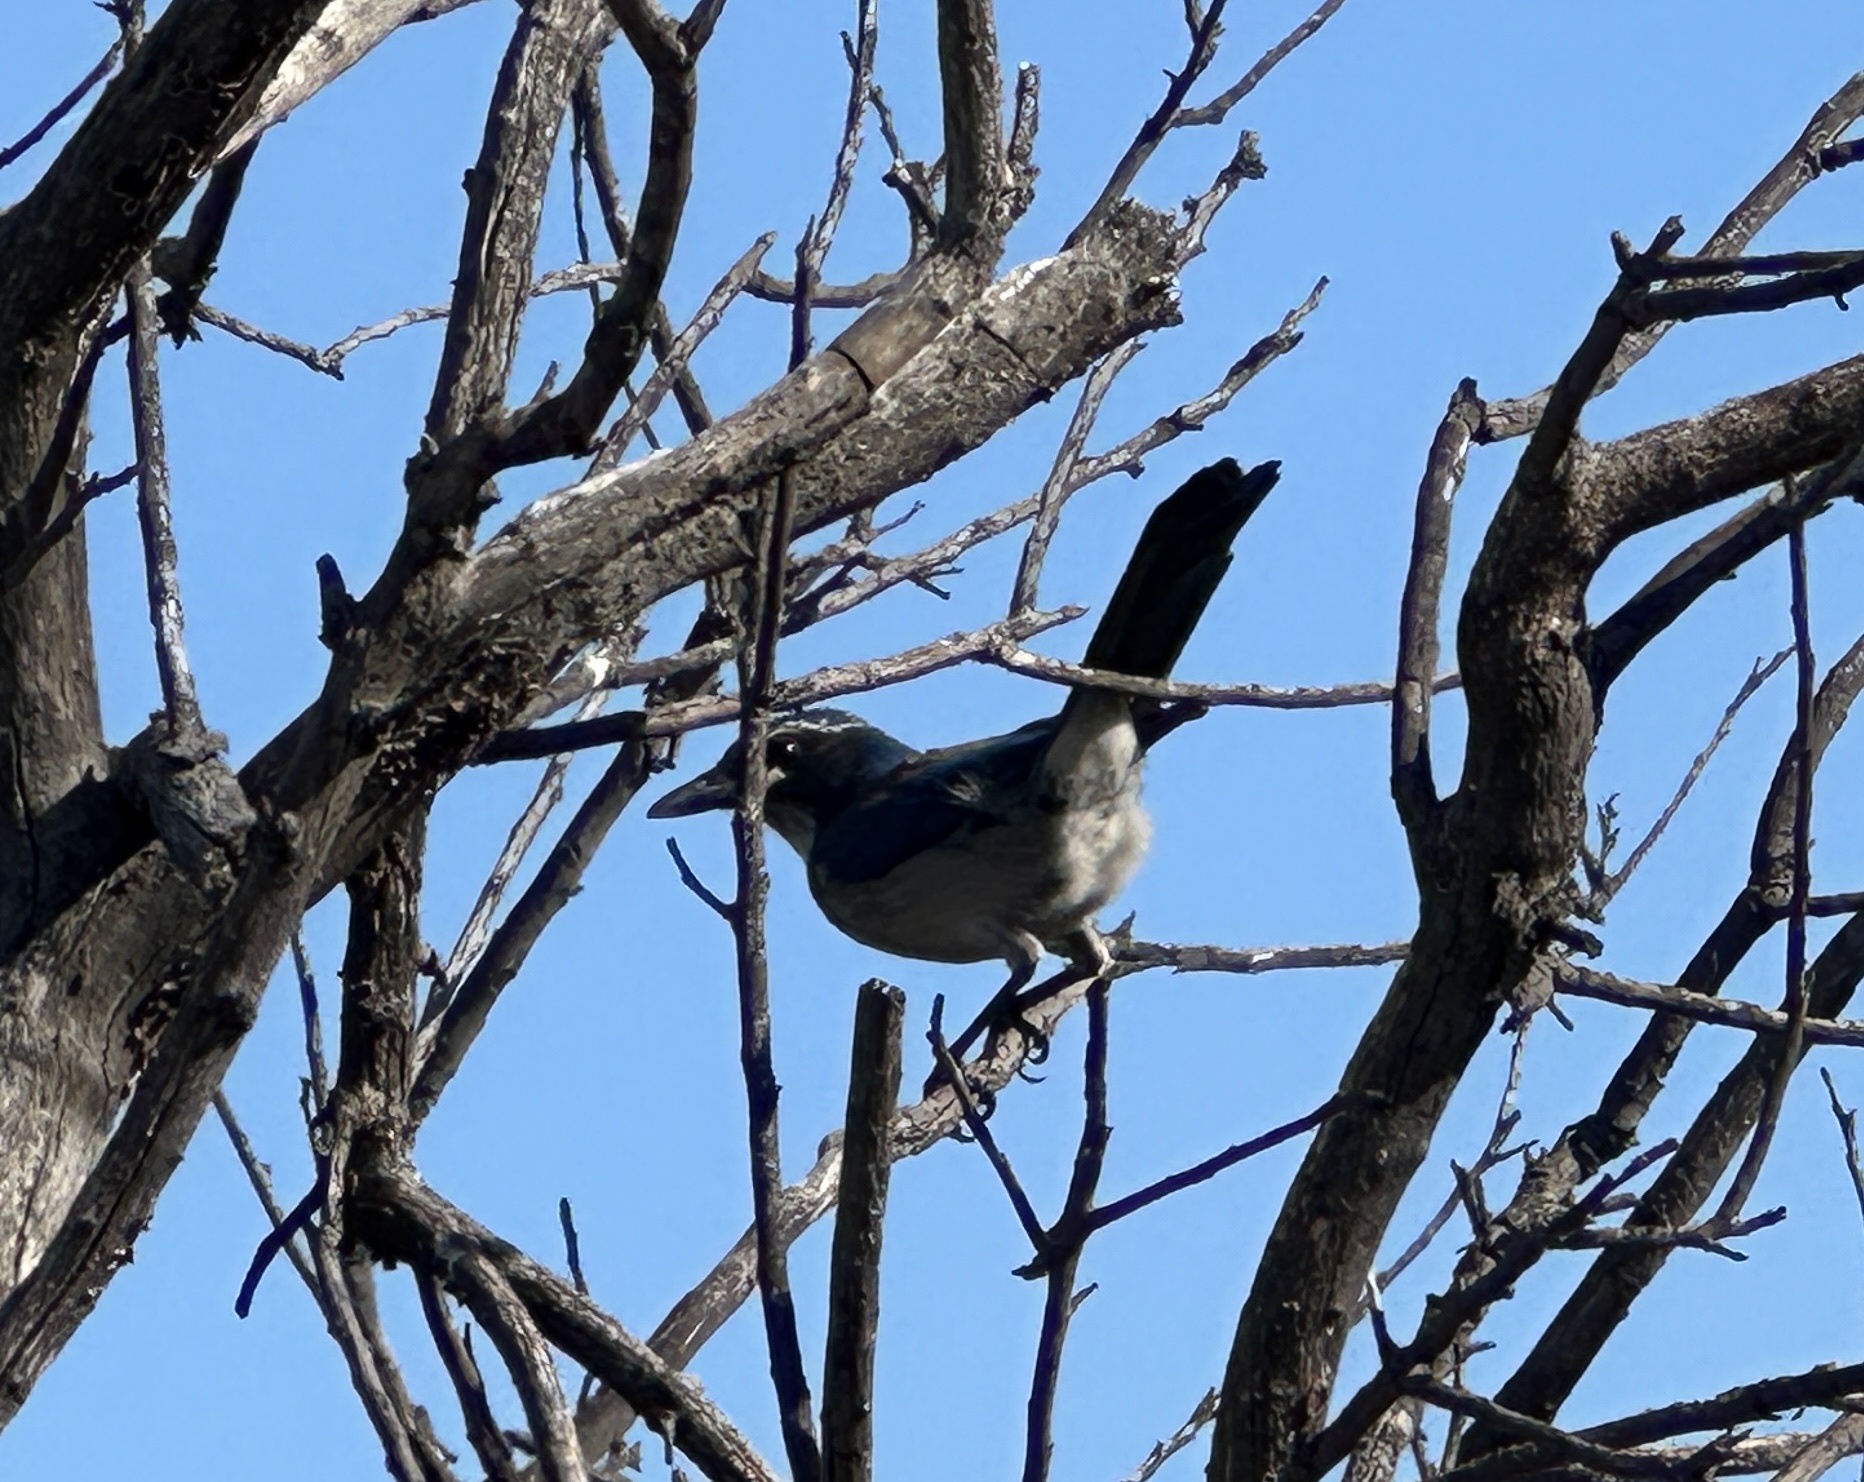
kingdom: Animalia
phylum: Chordata
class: Aves
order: Passeriformes
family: Corvidae
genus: Aphelocoma
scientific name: Aphelocoma californica
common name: California scrub-jay
